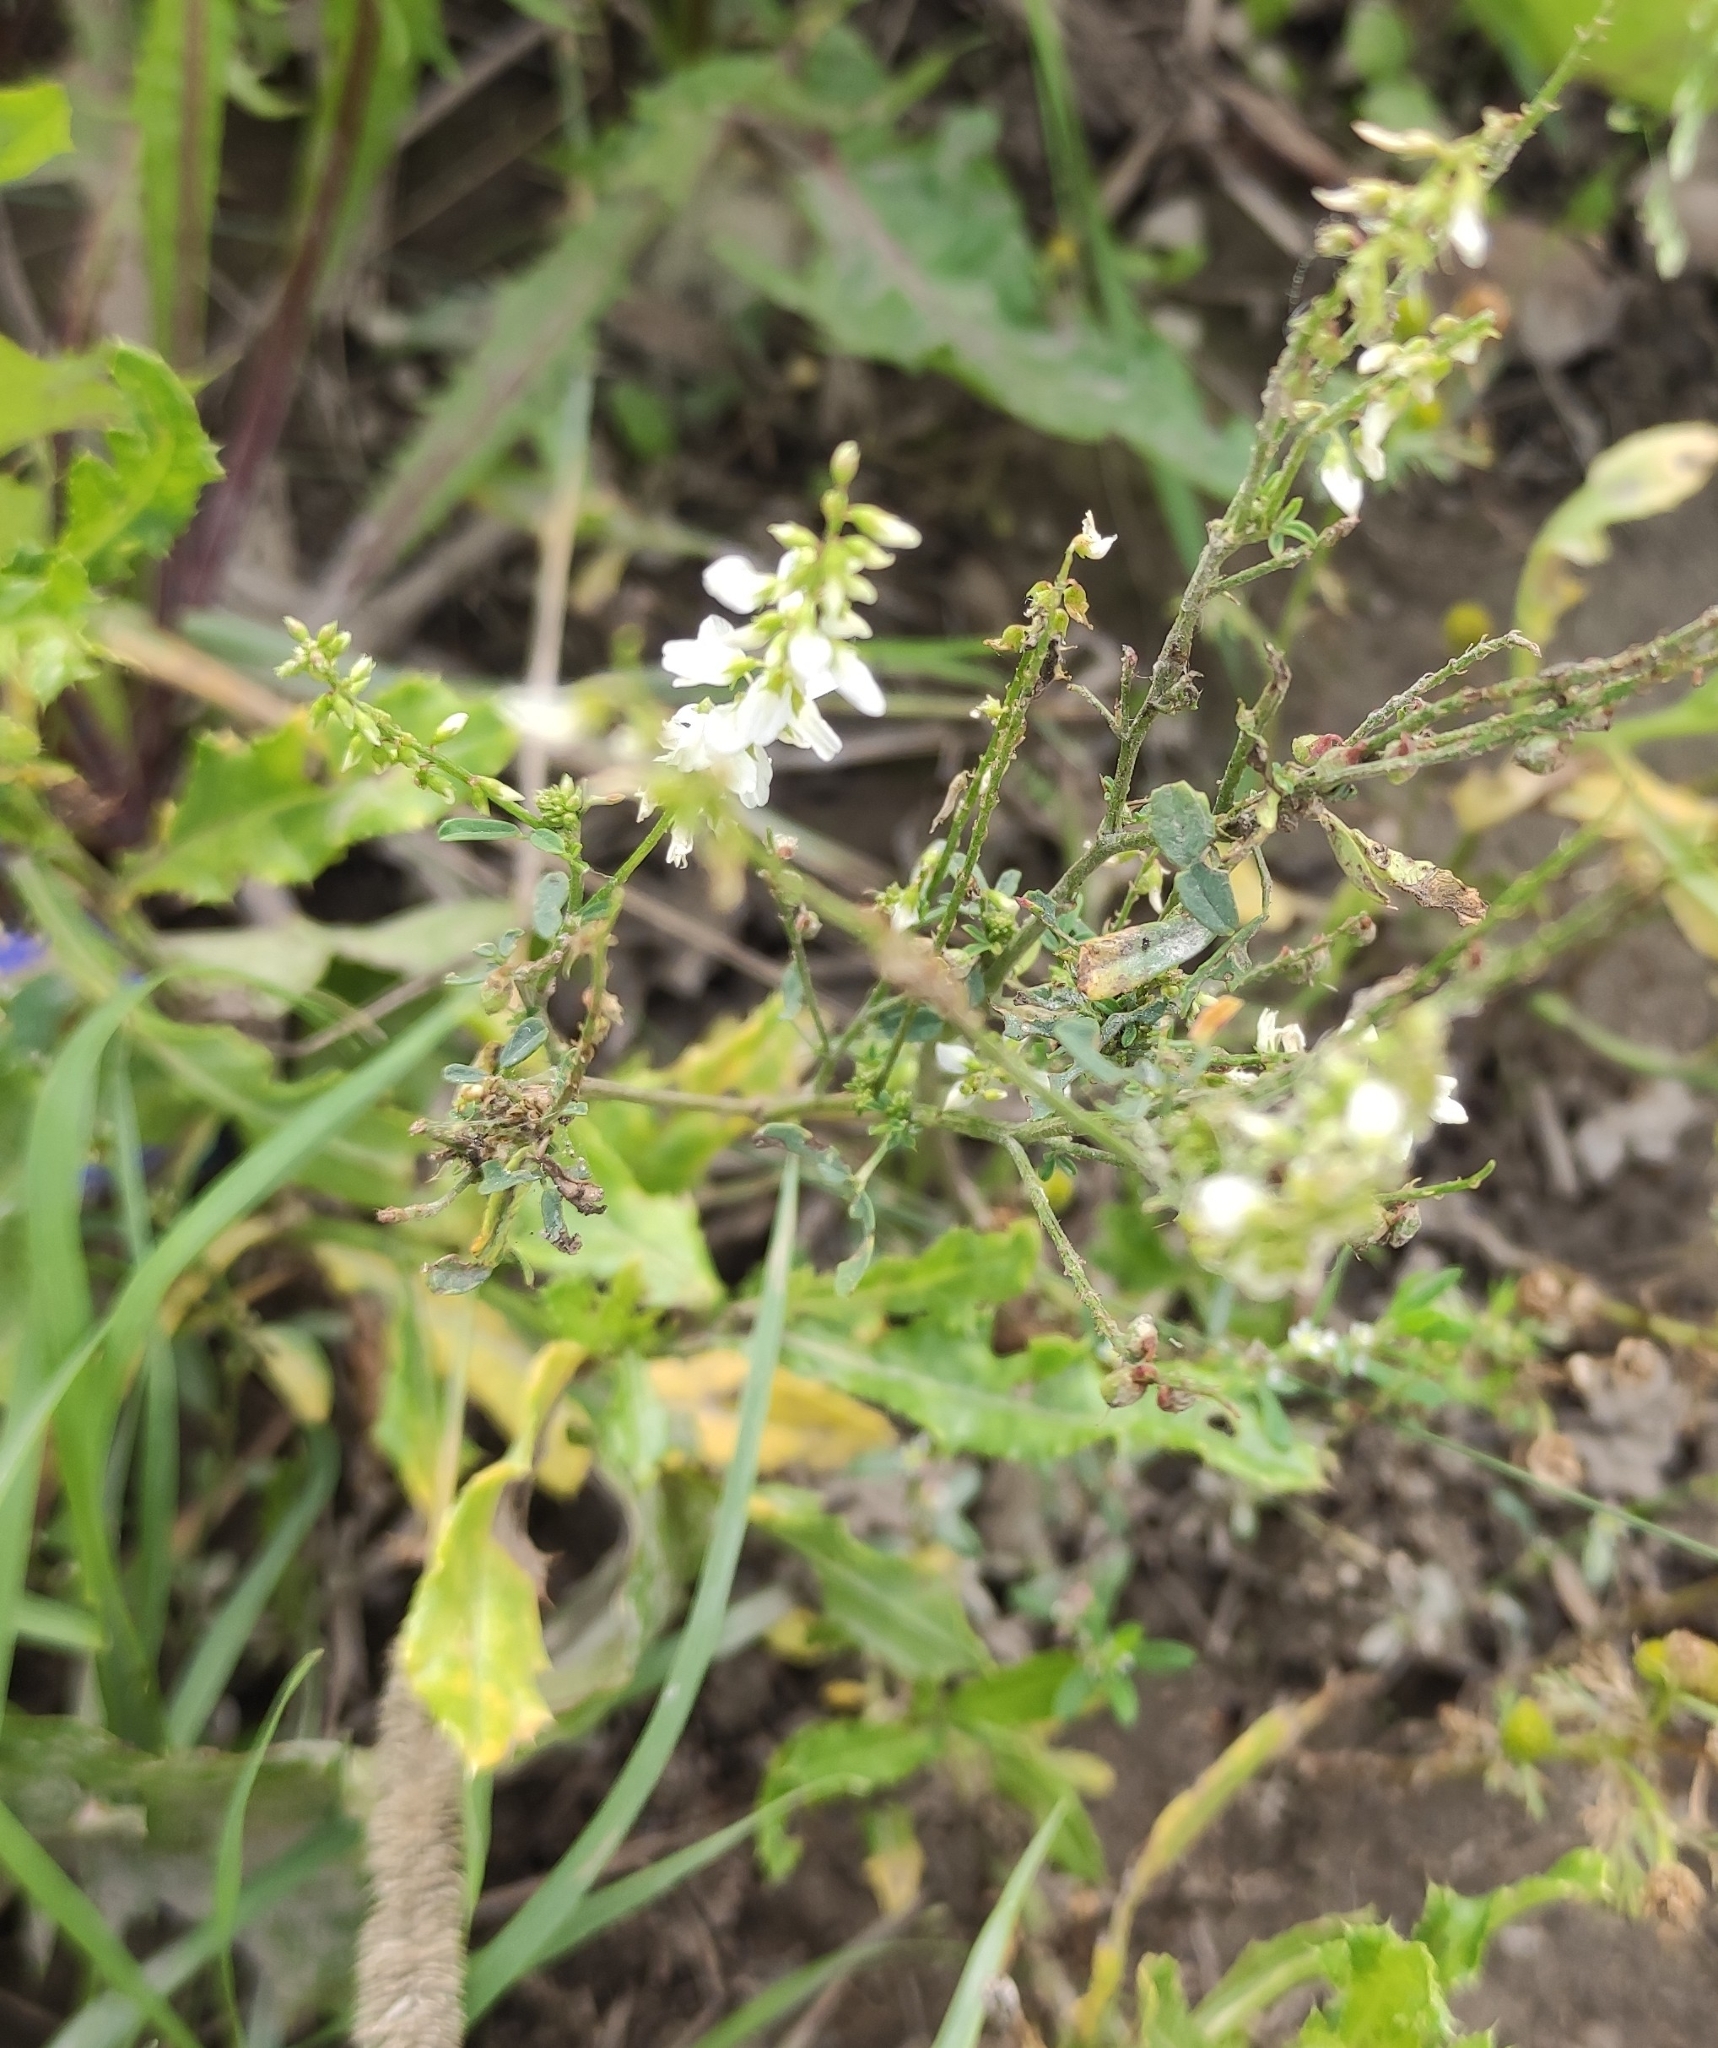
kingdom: Plantae
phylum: Tracheophyta
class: Magnoliopsida
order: Fabales
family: Fabaceae
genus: Melilotus
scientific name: Melilotus albus
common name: White melilot
